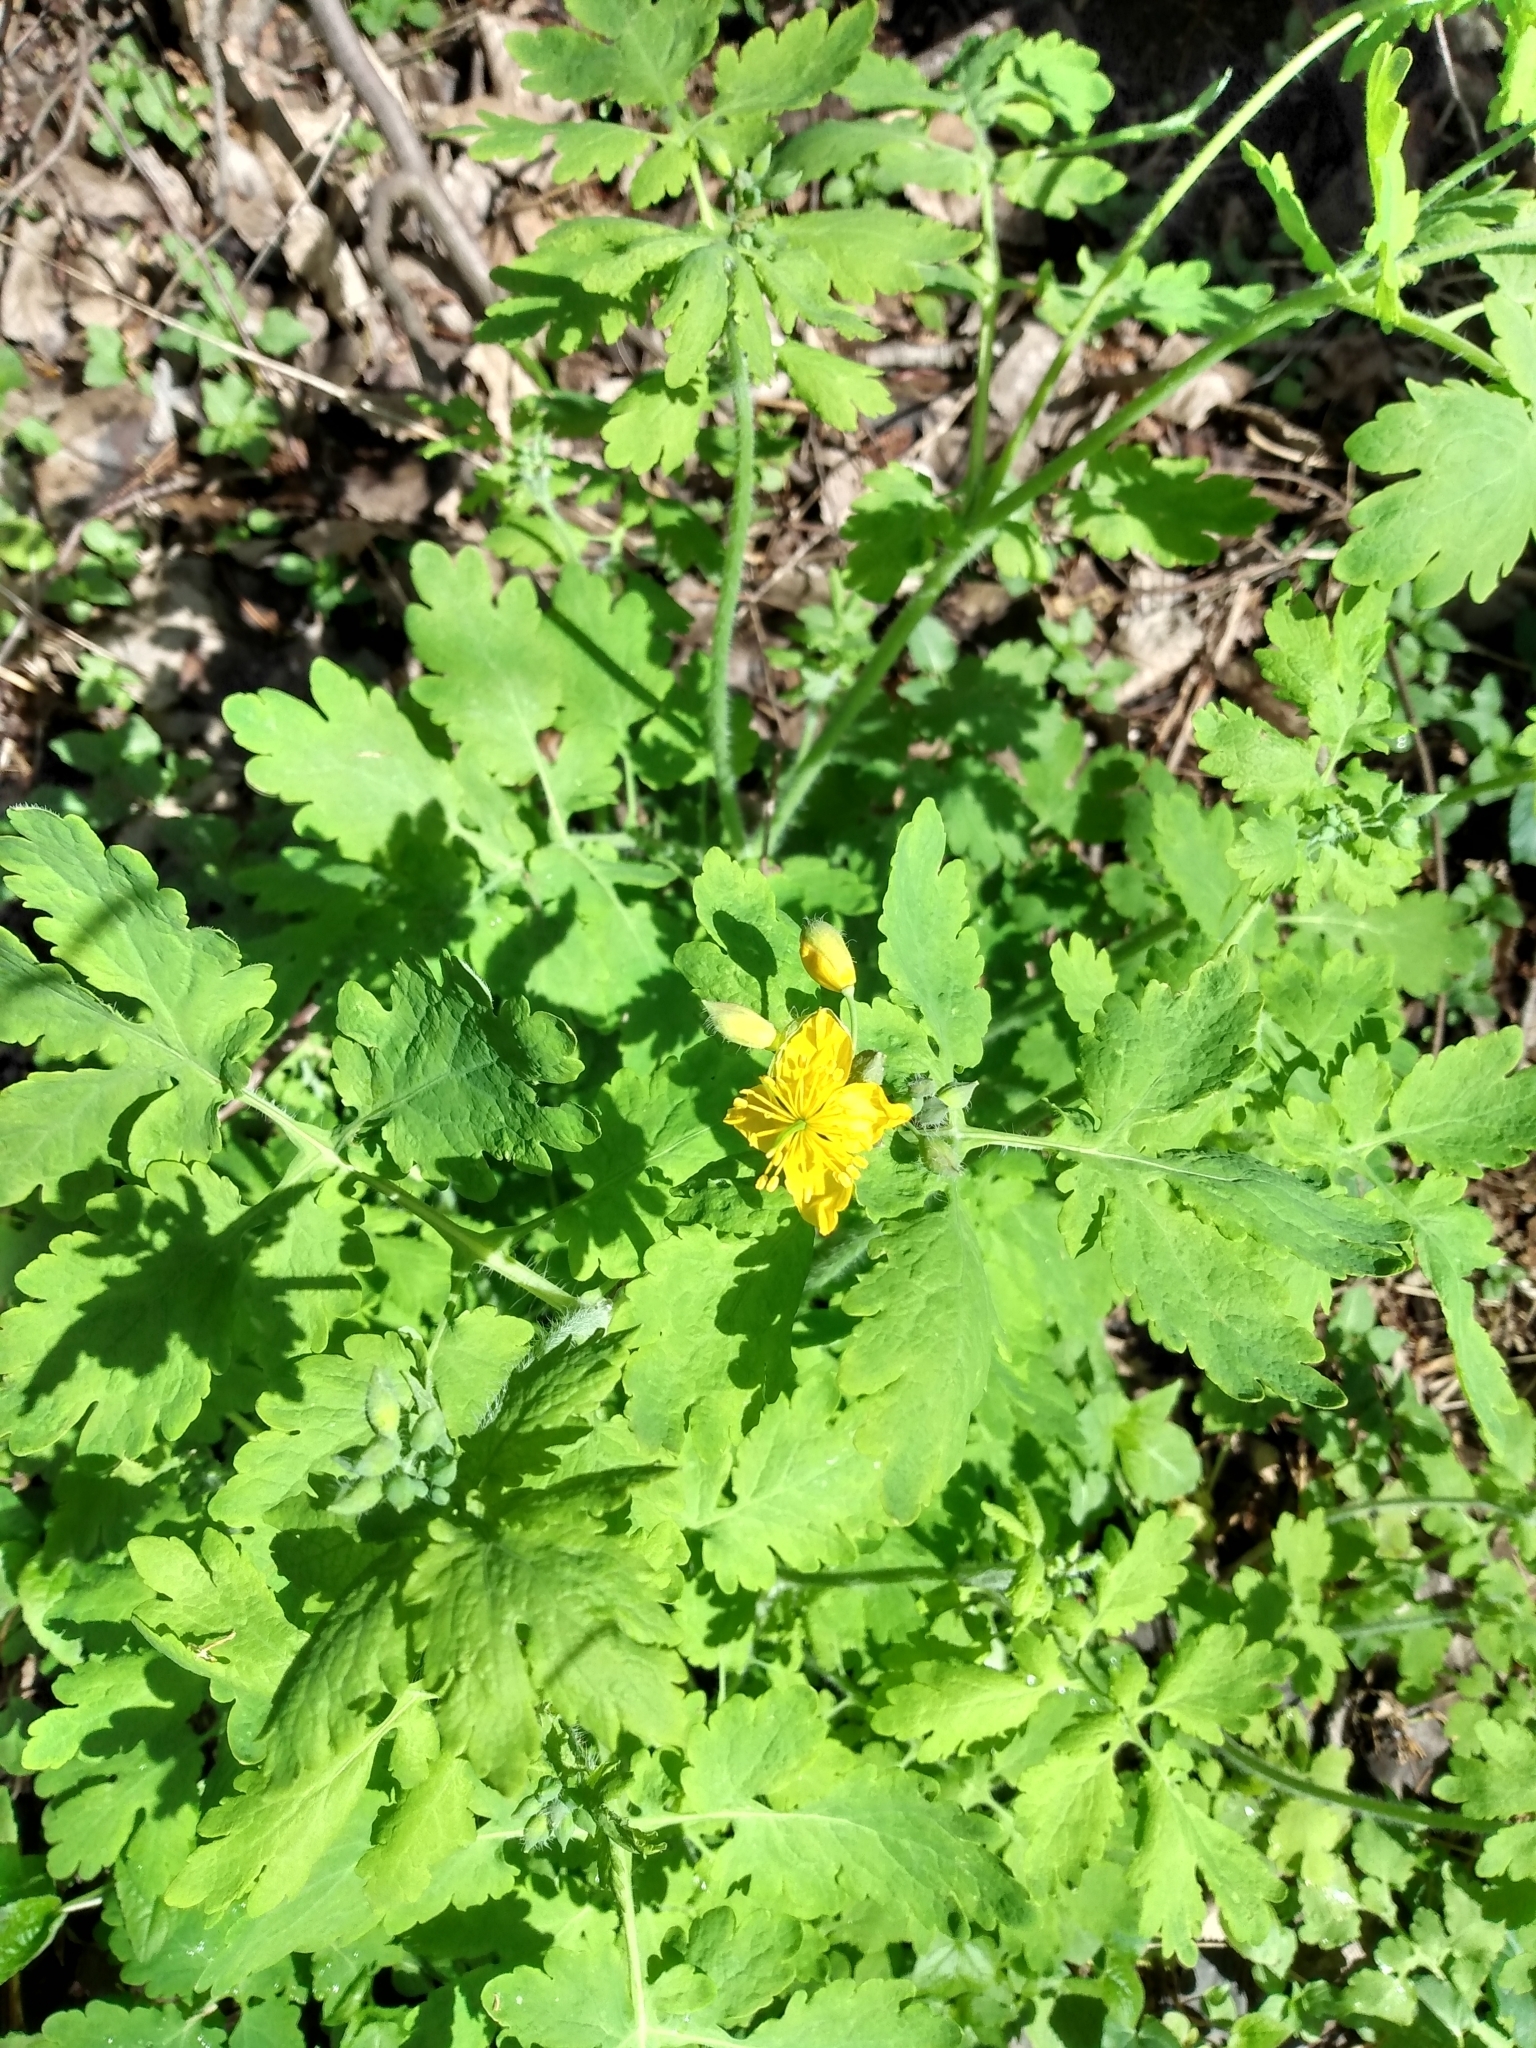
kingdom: Plantae
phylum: Tracheophyta
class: Magnoliopsida
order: Ranunculales
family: Papaveraceae
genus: Chelidonium
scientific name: Chelidonium majus
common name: Greater celandine
